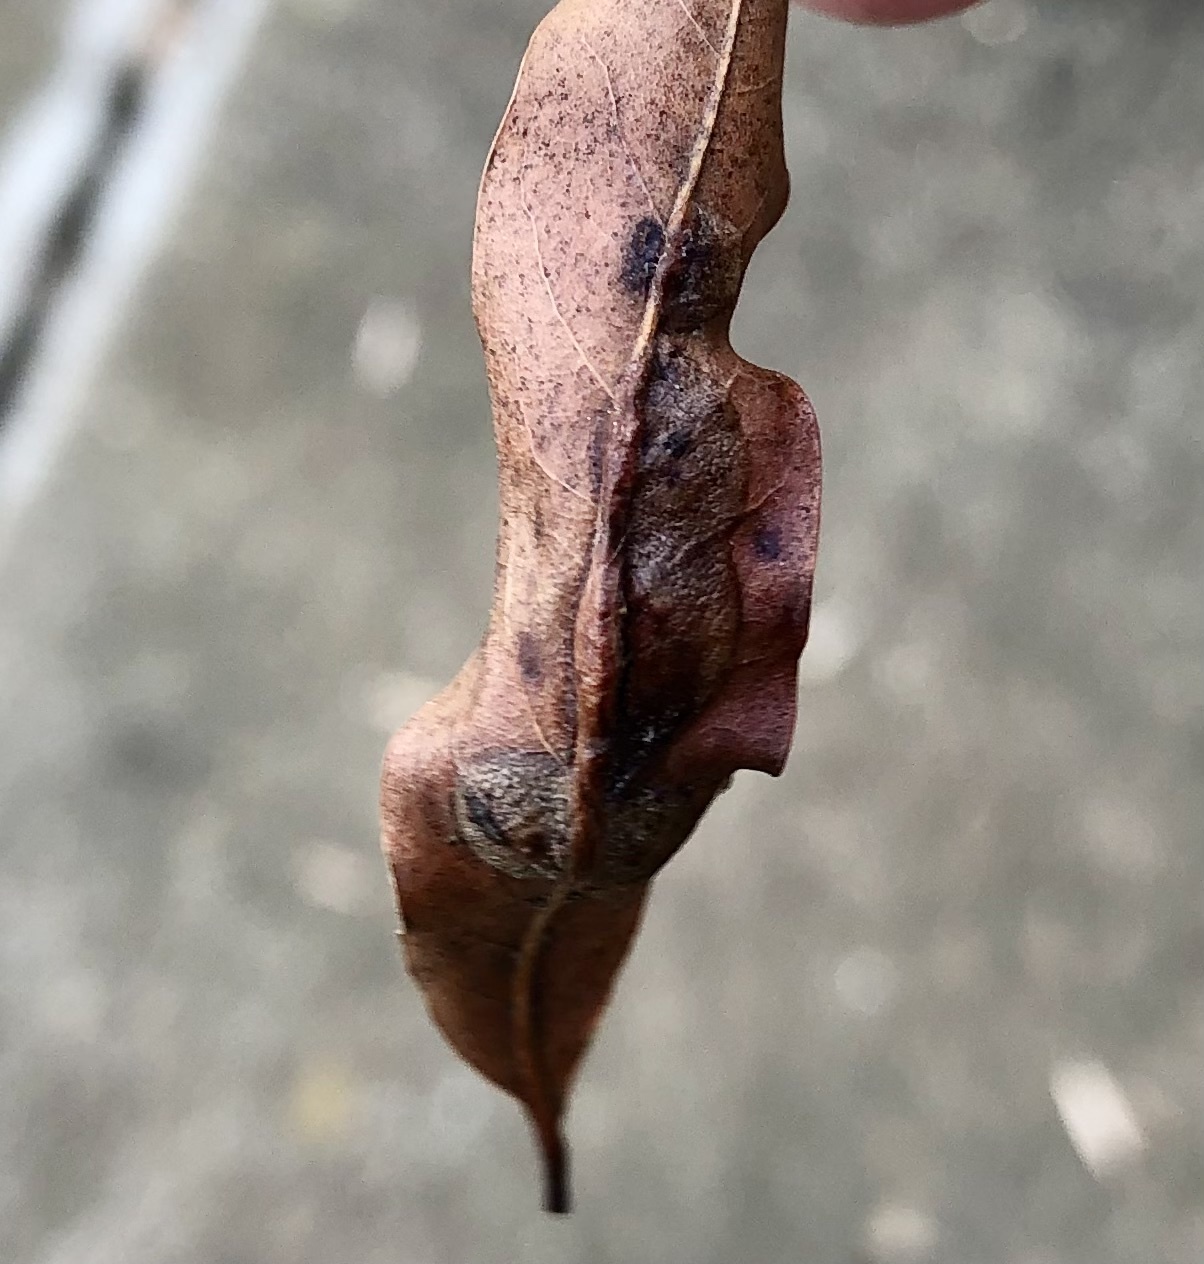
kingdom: Animalia
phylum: Arthropoda
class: Insecta
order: Diptera
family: Cecidomyiidae
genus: Polystepha
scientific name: Polystepha pilulae
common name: Oak leaf gall midge
